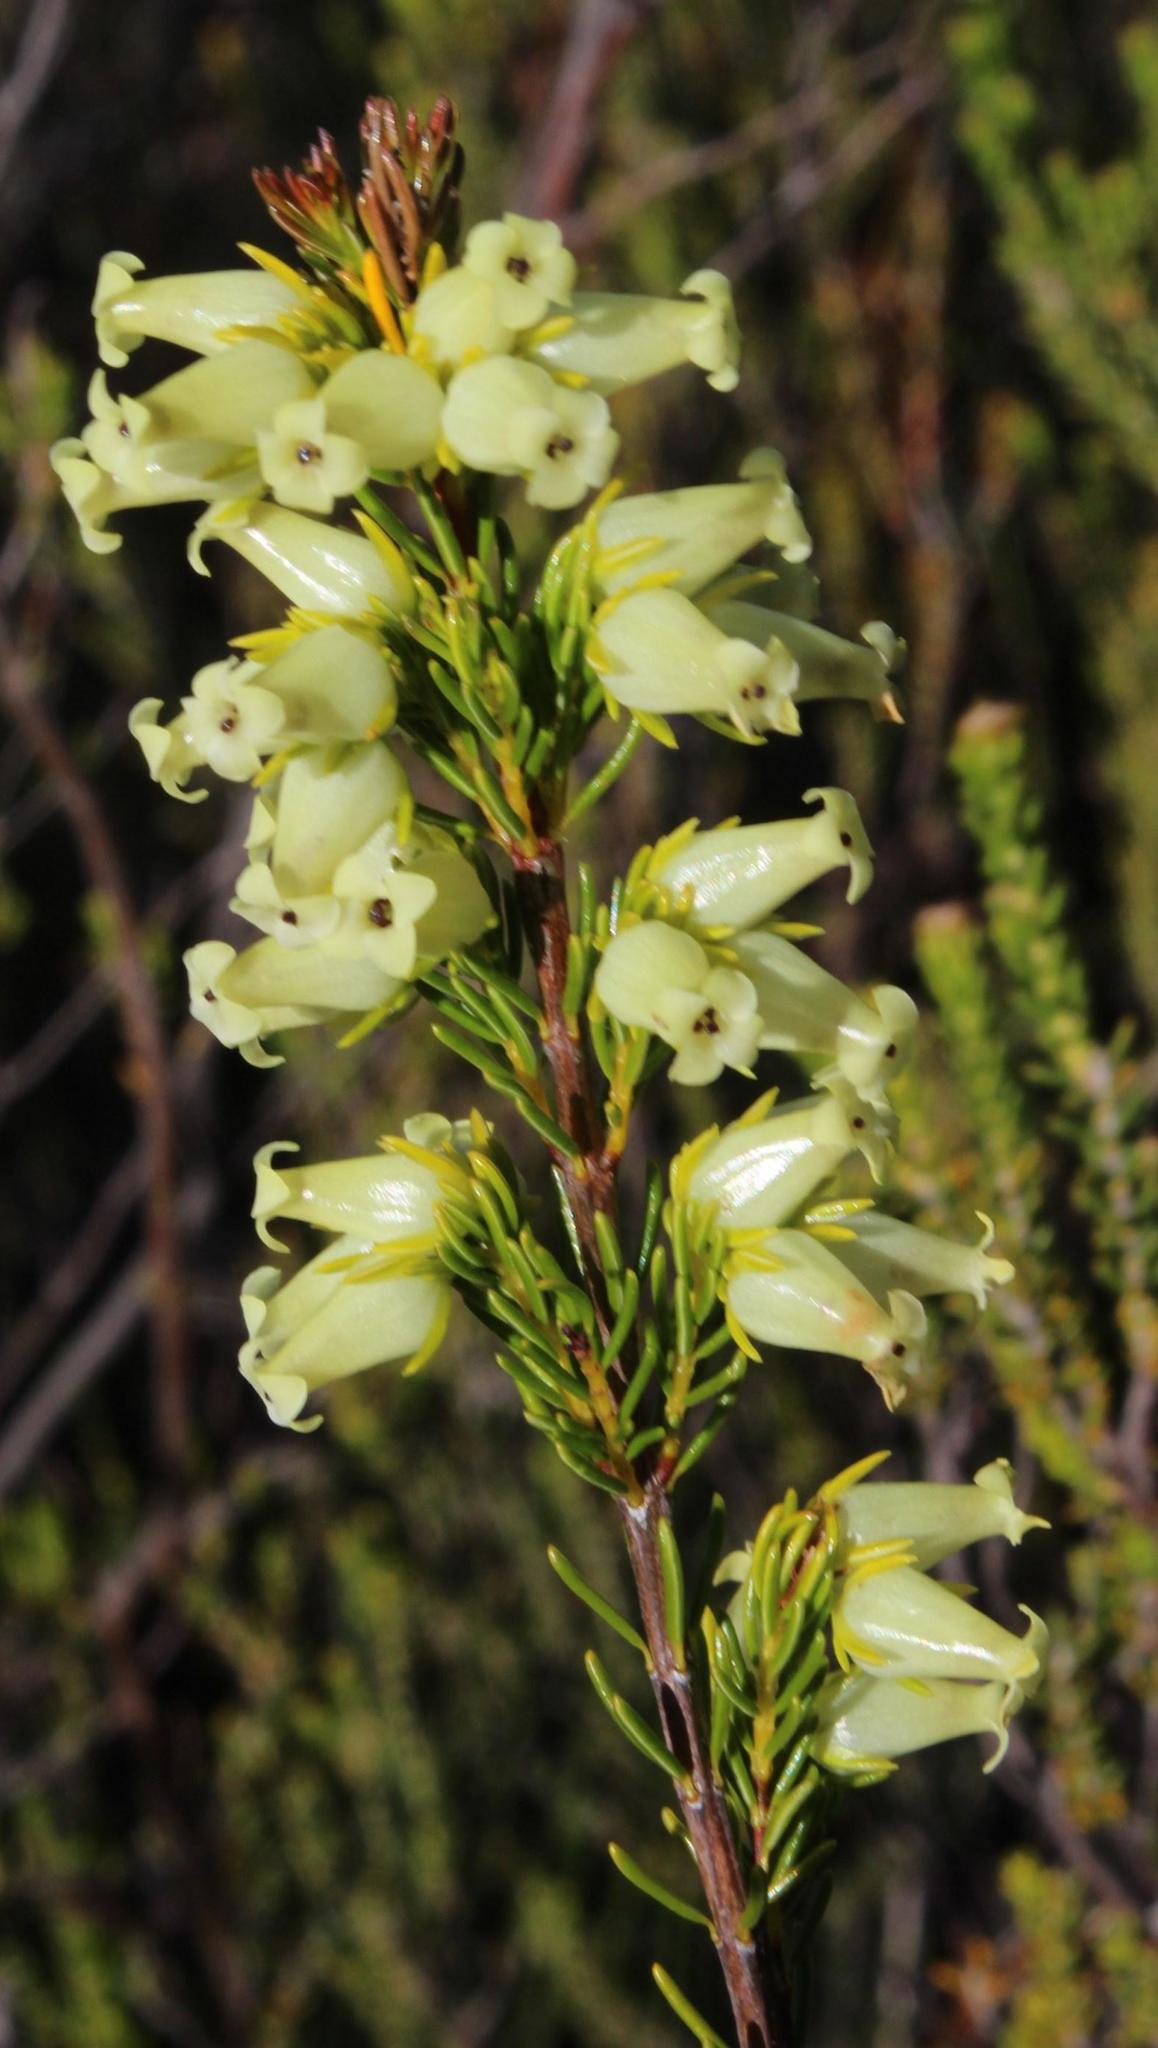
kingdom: Plantae
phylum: Tracheophyta
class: Magnoliopsida
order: Ericales
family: Ericaceae
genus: Erica
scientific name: Erica daphniflora
